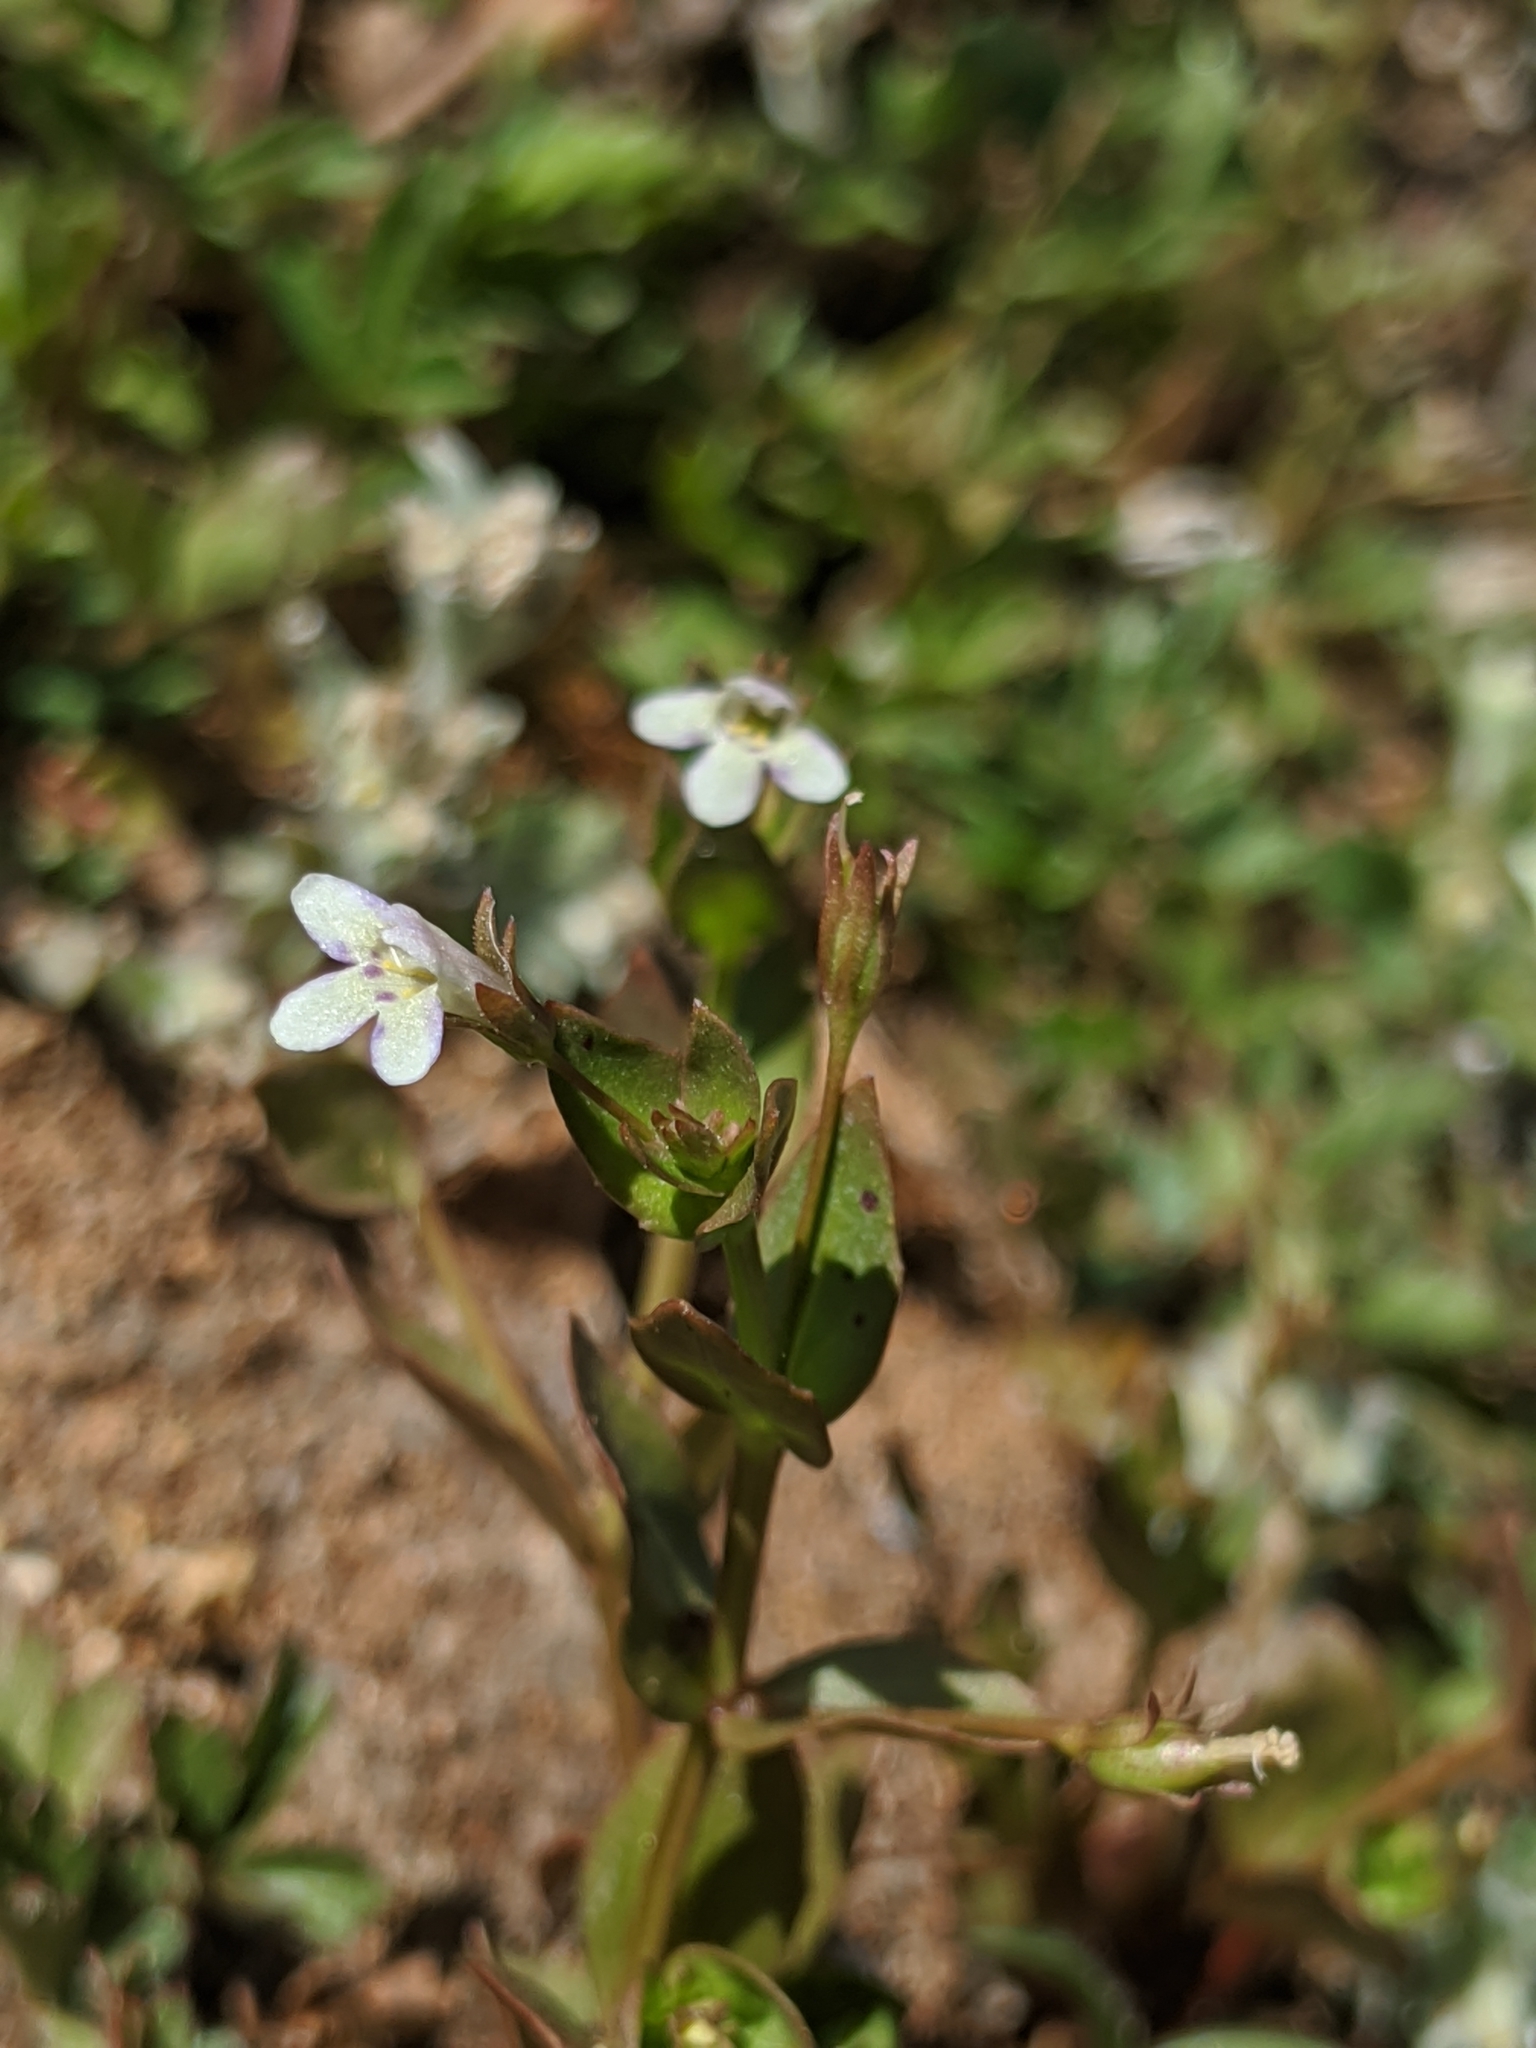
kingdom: Plantae
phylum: Tracheophyta
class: Magnoliopsida
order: Lamiales
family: Linderniaceae
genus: Lindernia
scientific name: Lindernia dubia
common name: Annual false pimpernel
